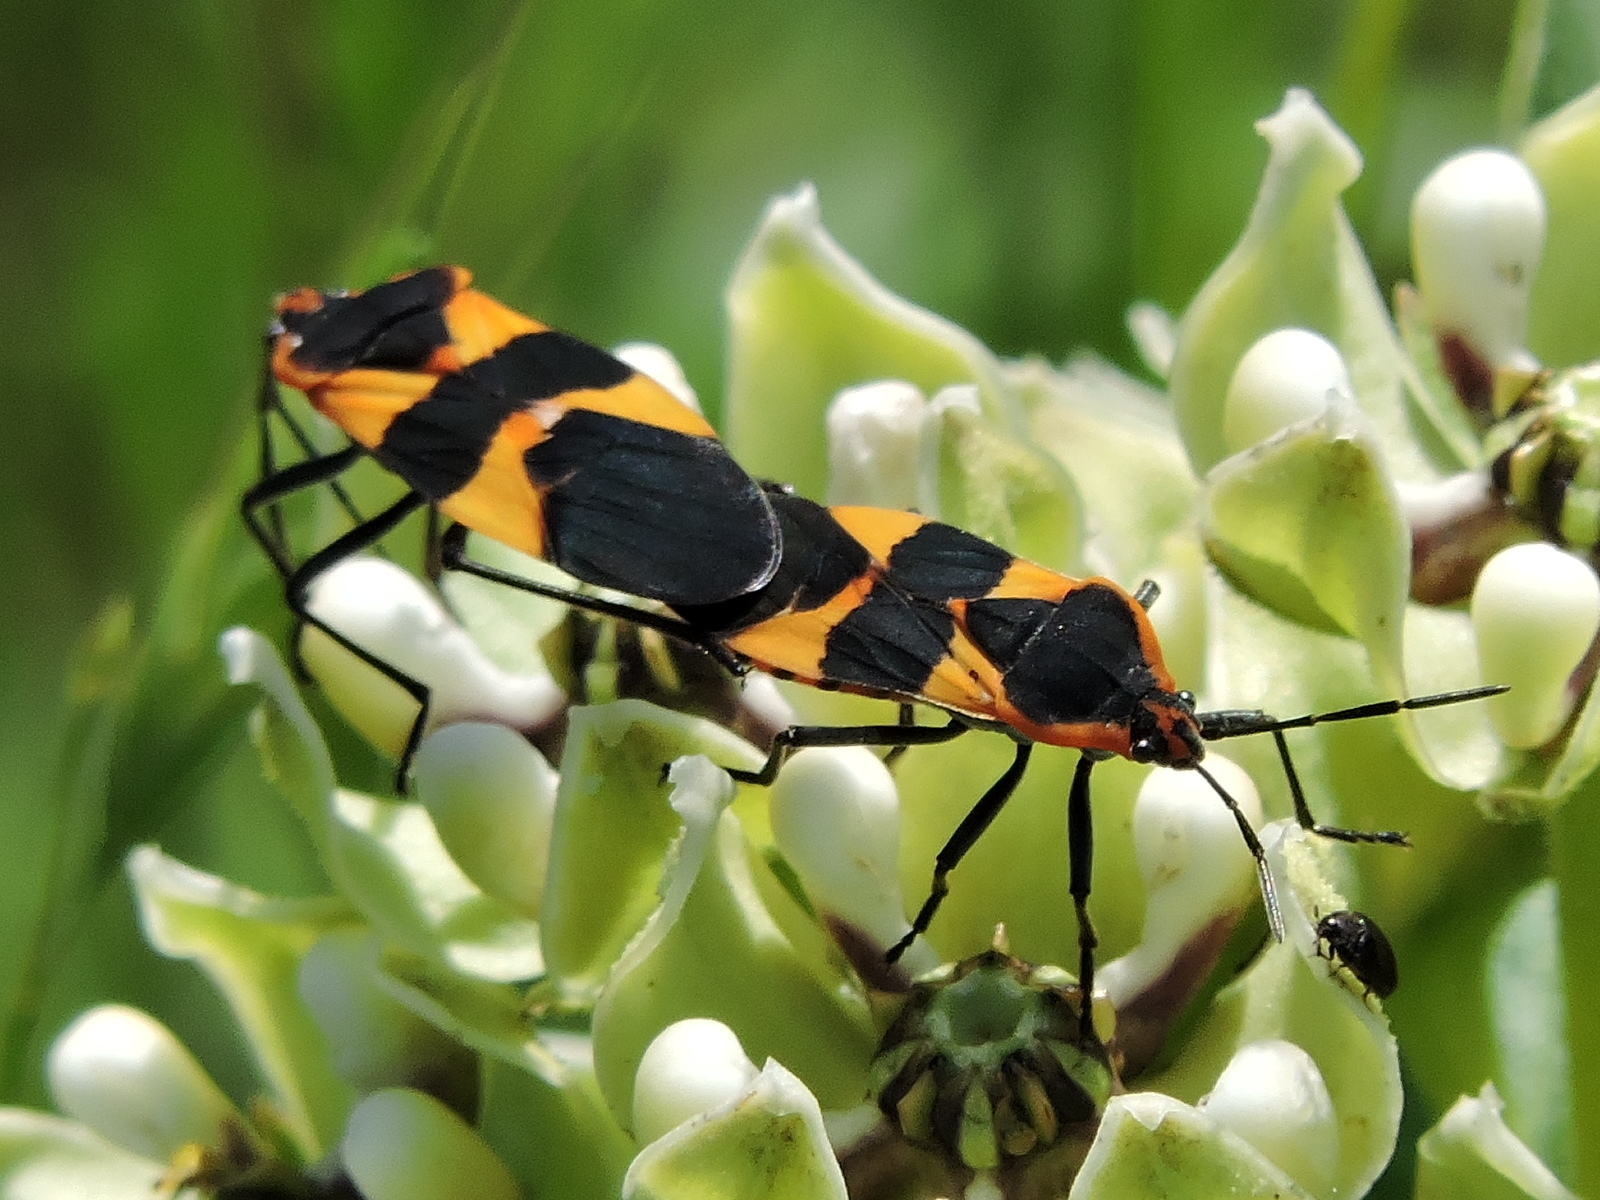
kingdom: Animalia
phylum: Arthropoda
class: Insecta
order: Hemiptera
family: Lygaeidae
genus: Oncopeltus
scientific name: Oncopeltus fasciatus
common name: Large milkweed bug
